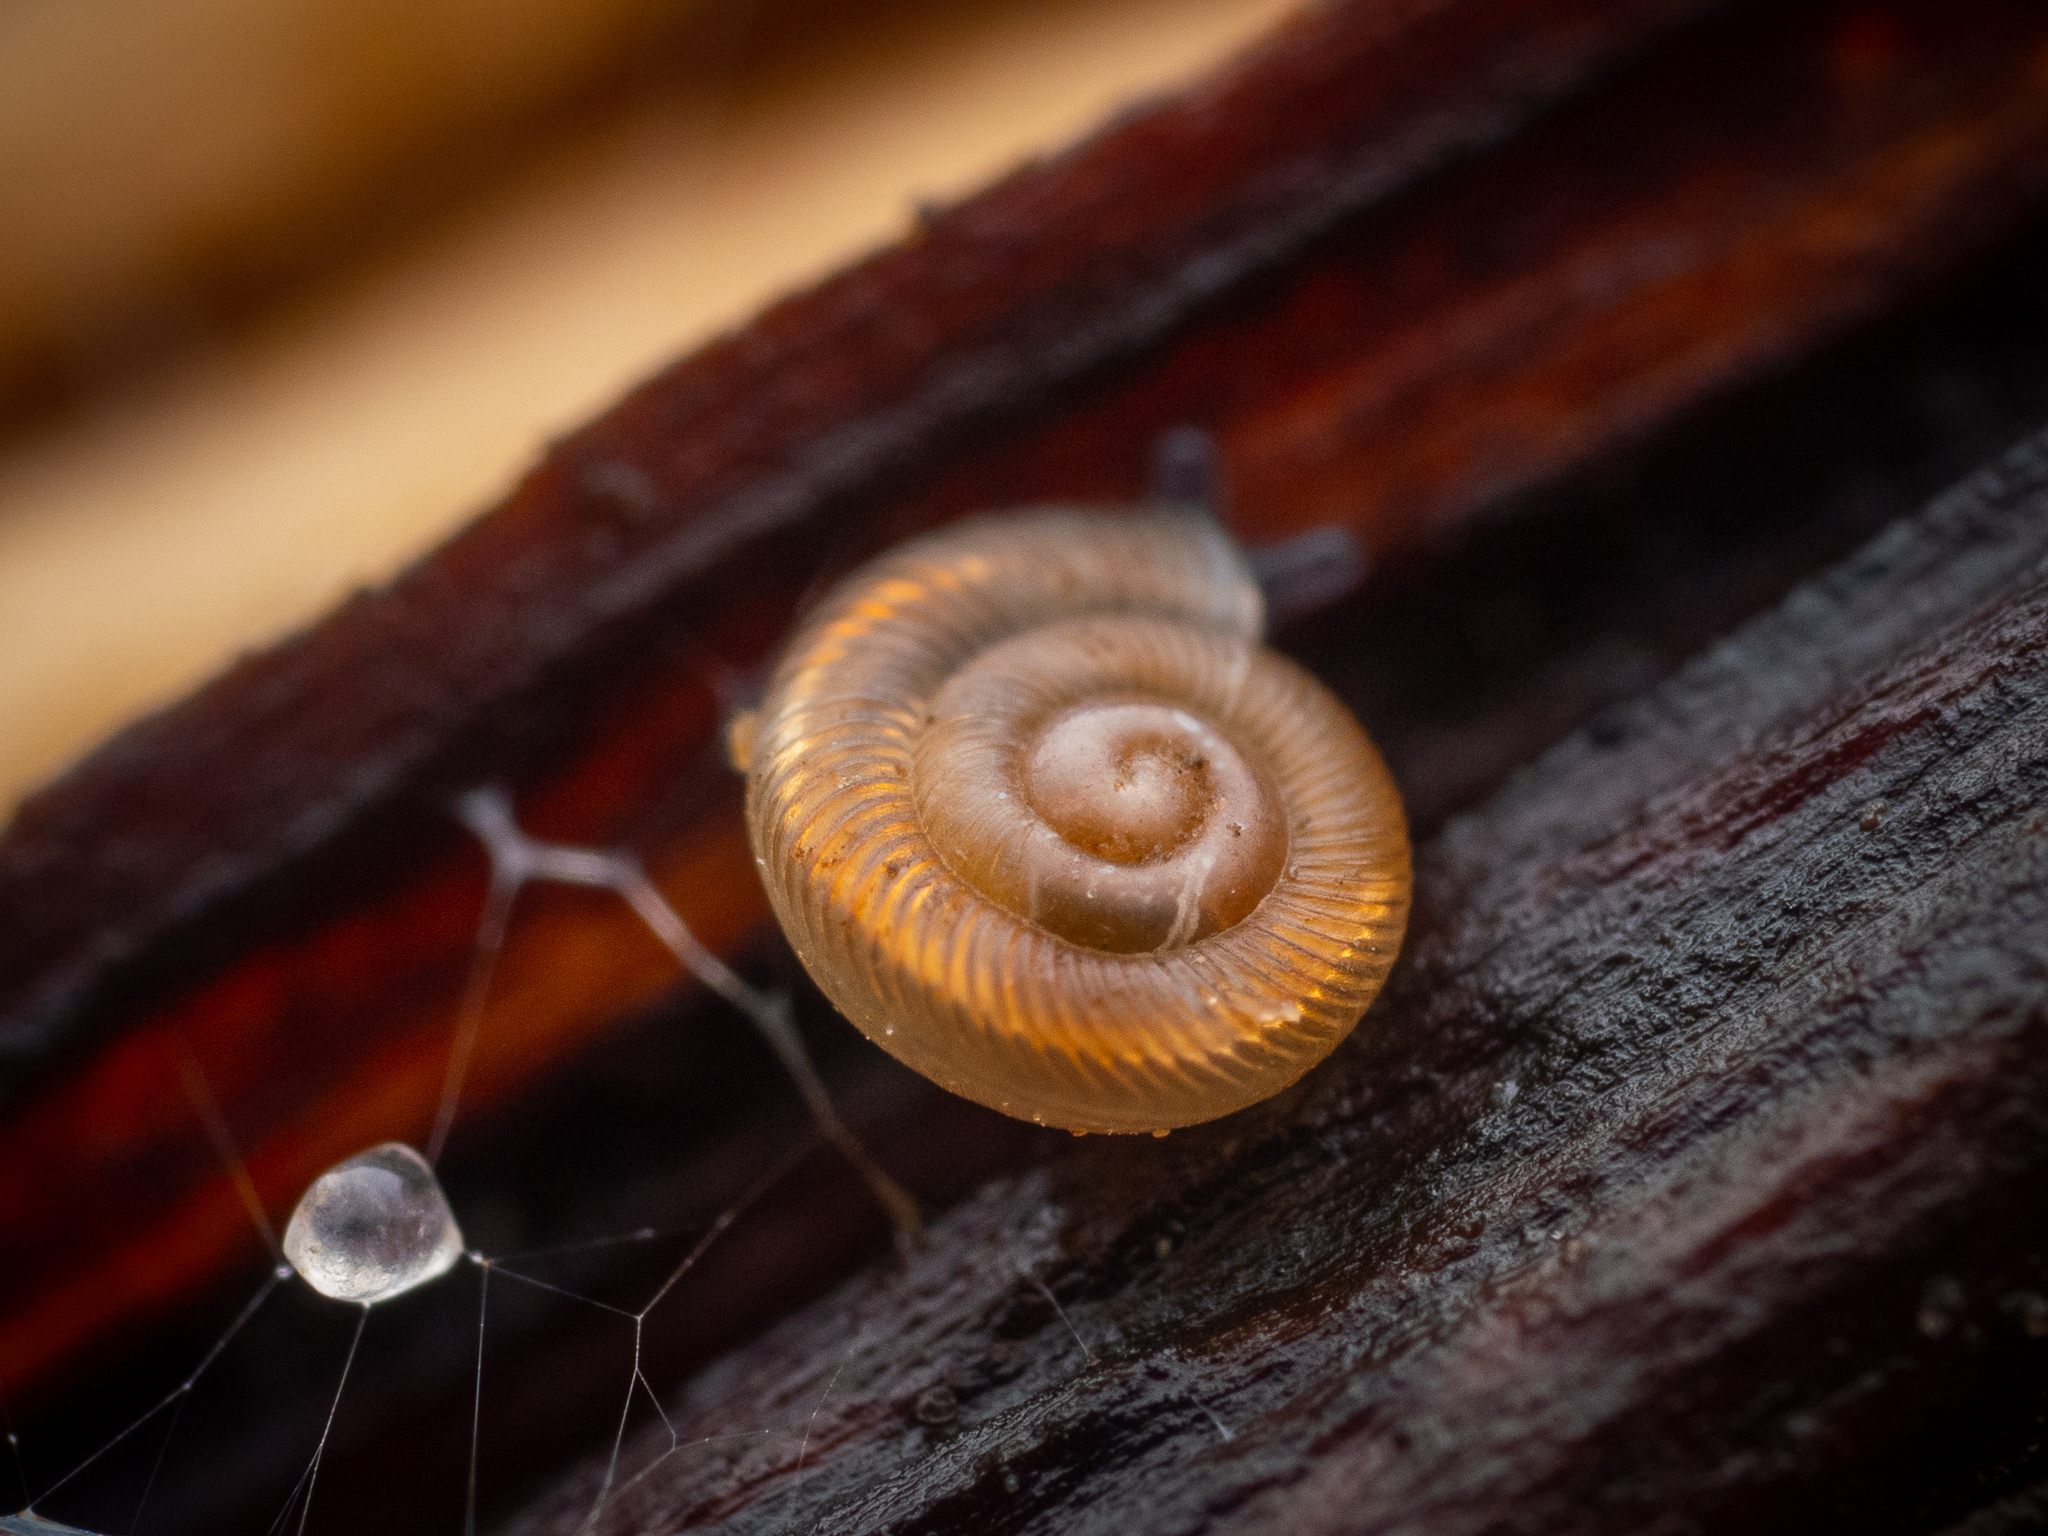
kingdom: Animalia
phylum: Mollusca
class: Gastropoda
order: Stylommatophora
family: Discidae
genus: Discus
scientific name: Discus rotundatus
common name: Rounded snail
